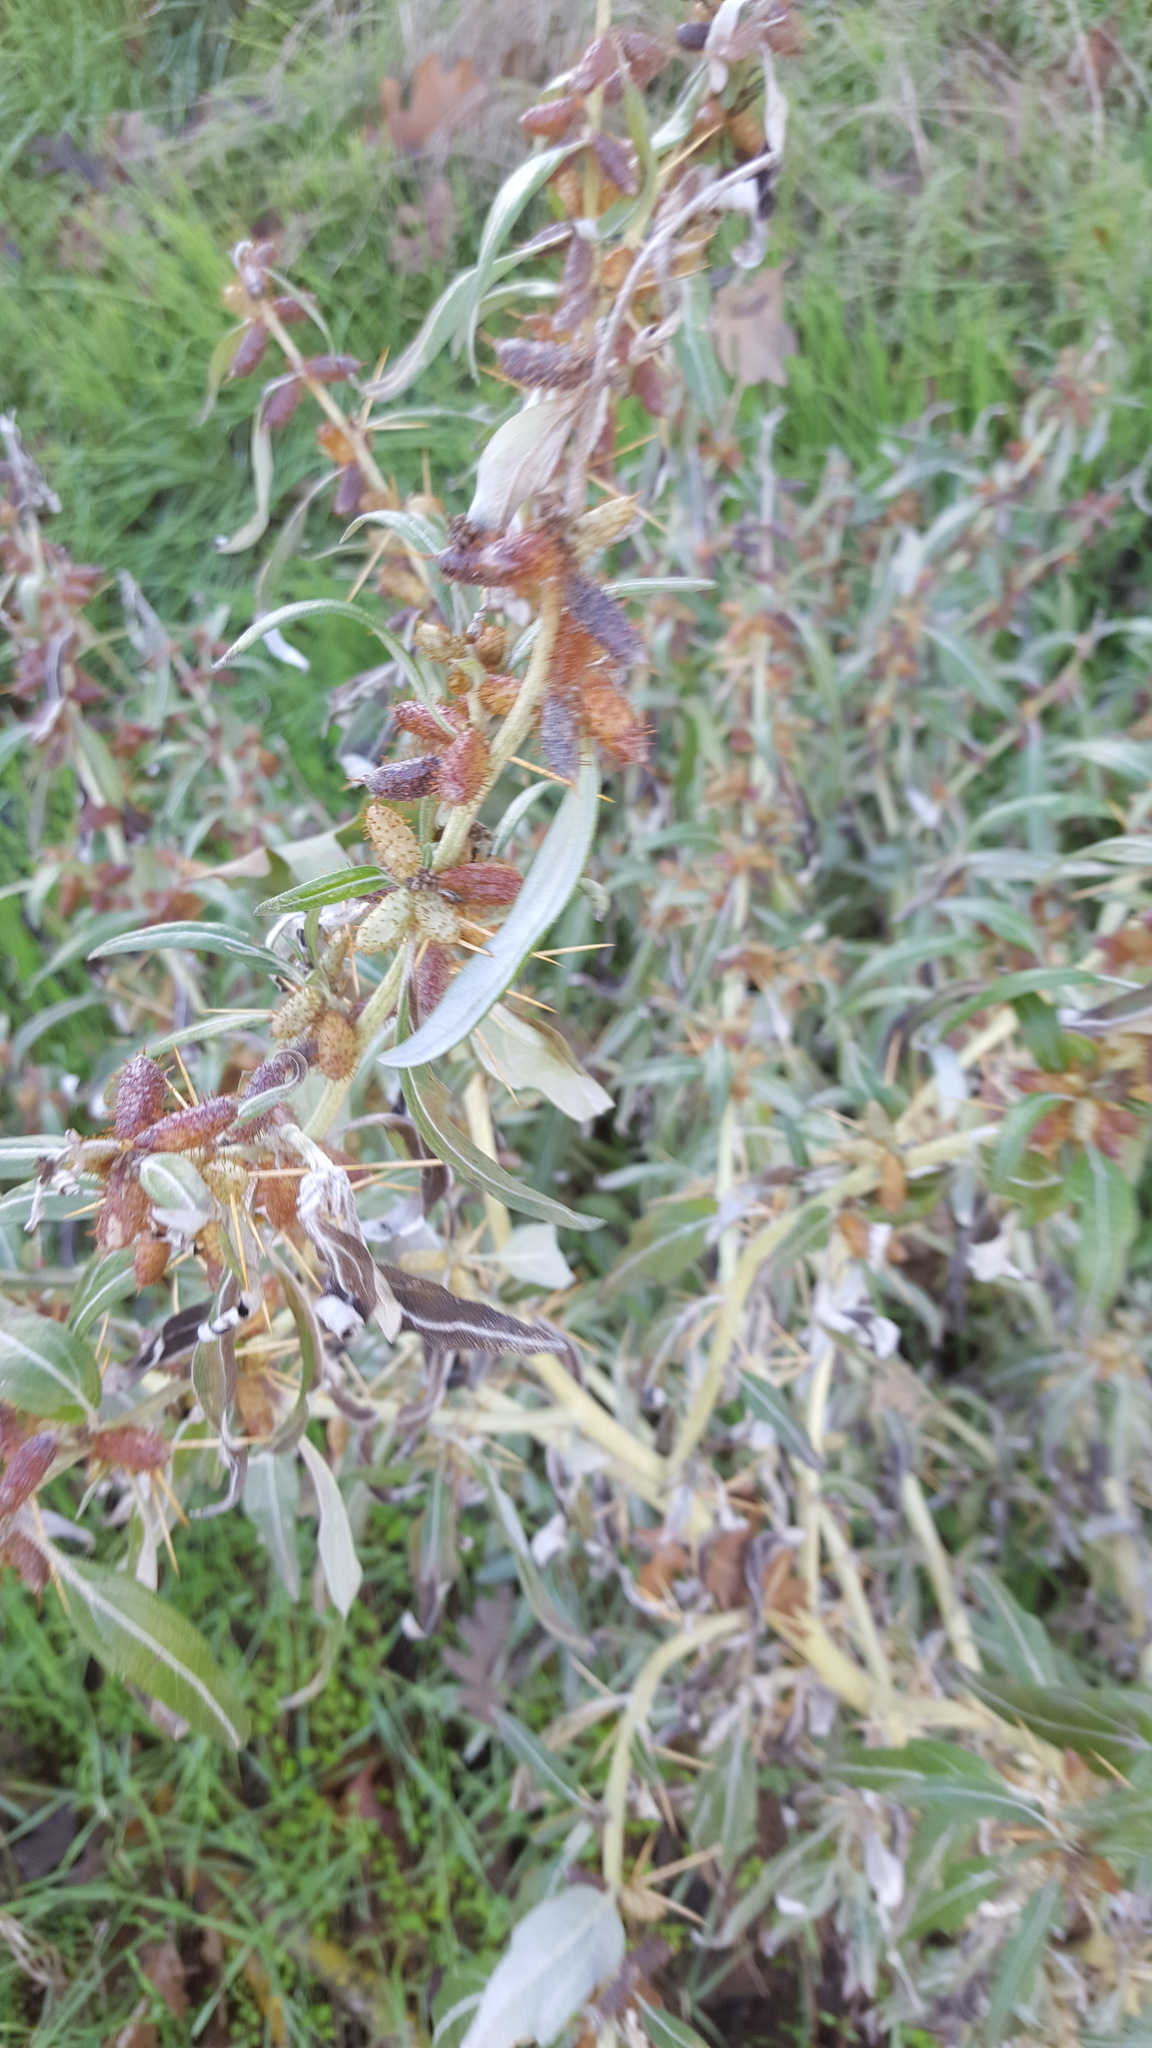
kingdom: Plantae
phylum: Tracheophyta
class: Magnoliopsida
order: Asterales
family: Asteraceae
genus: Xanthium
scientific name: Xanthium spinosum
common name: Spiny cocklebur
